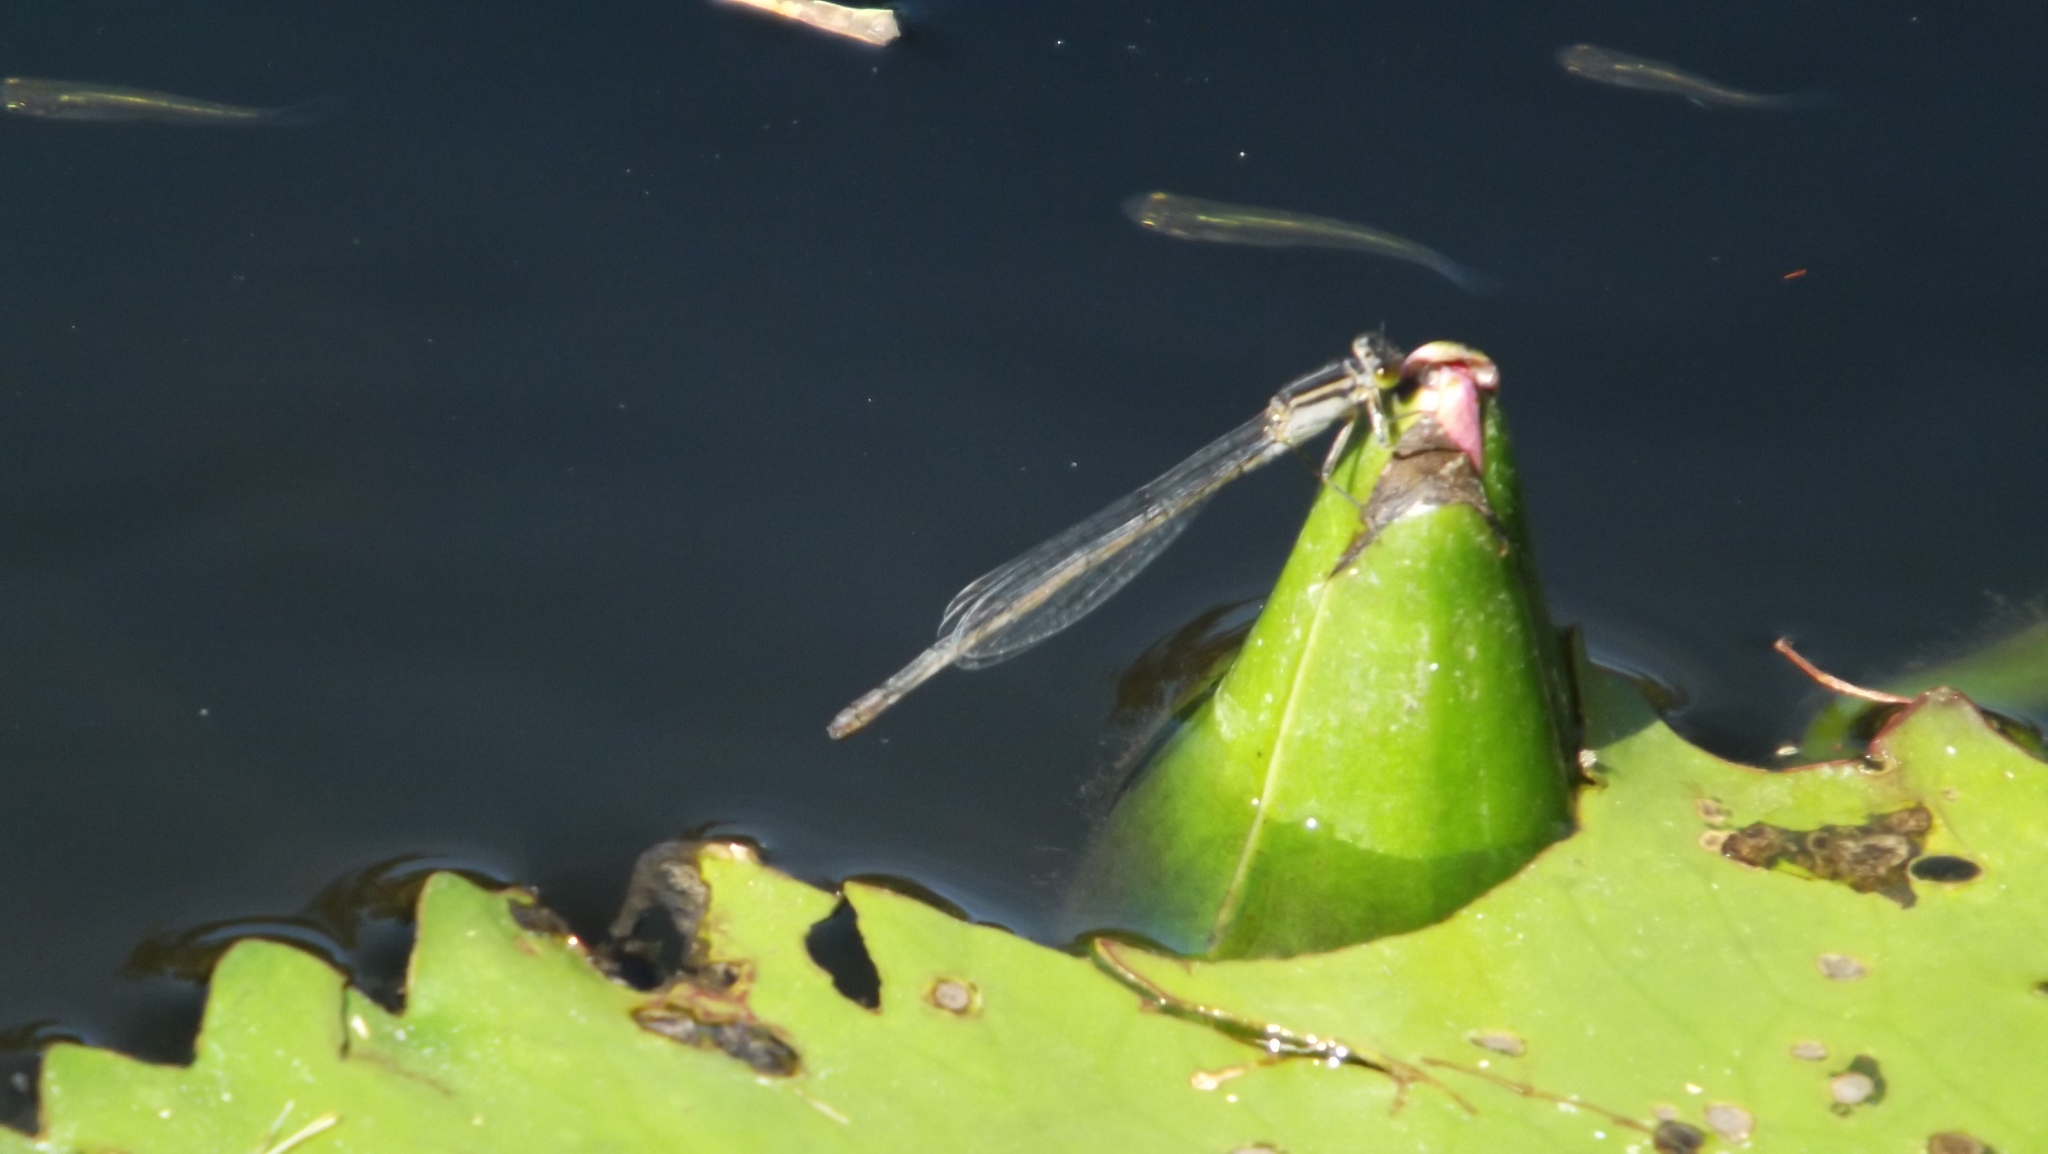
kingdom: Animalia
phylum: Arthropoda
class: Insecta
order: Odonata
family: Coenagrionidae
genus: Ischnura
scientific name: Ischnura heterosticta
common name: Common bluetail
